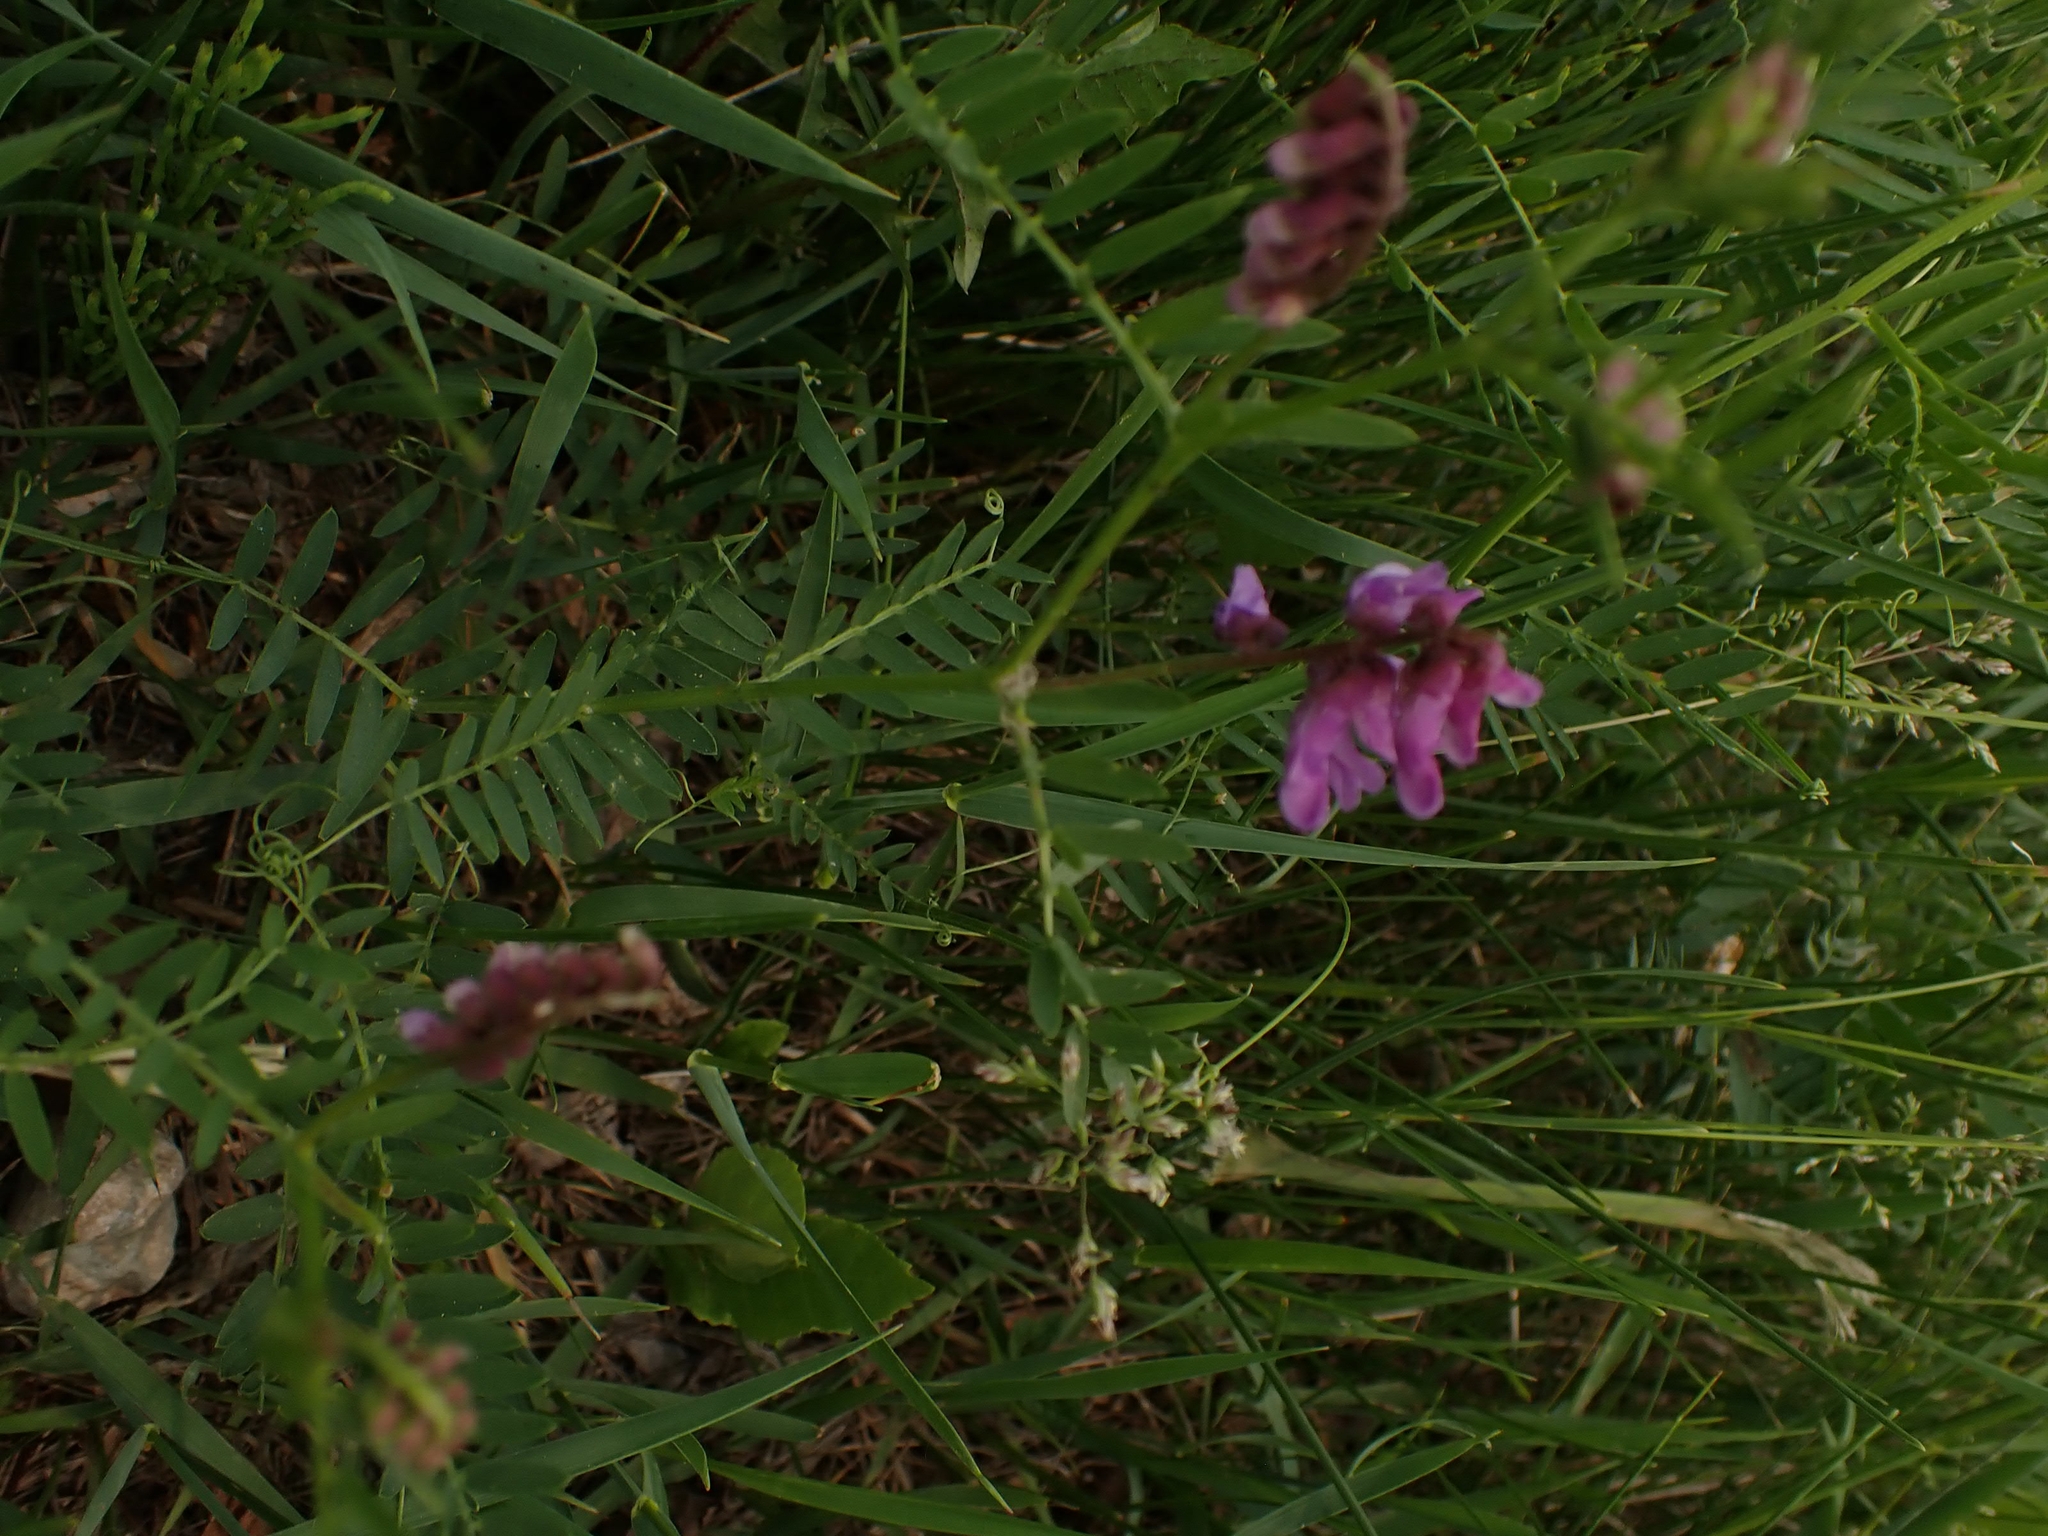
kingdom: Plantae
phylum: Tracheophyta
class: Magnoliopsida
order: Fabales
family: Fabaceae
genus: Vicia
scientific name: Vicia cracca
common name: Bird vetch
